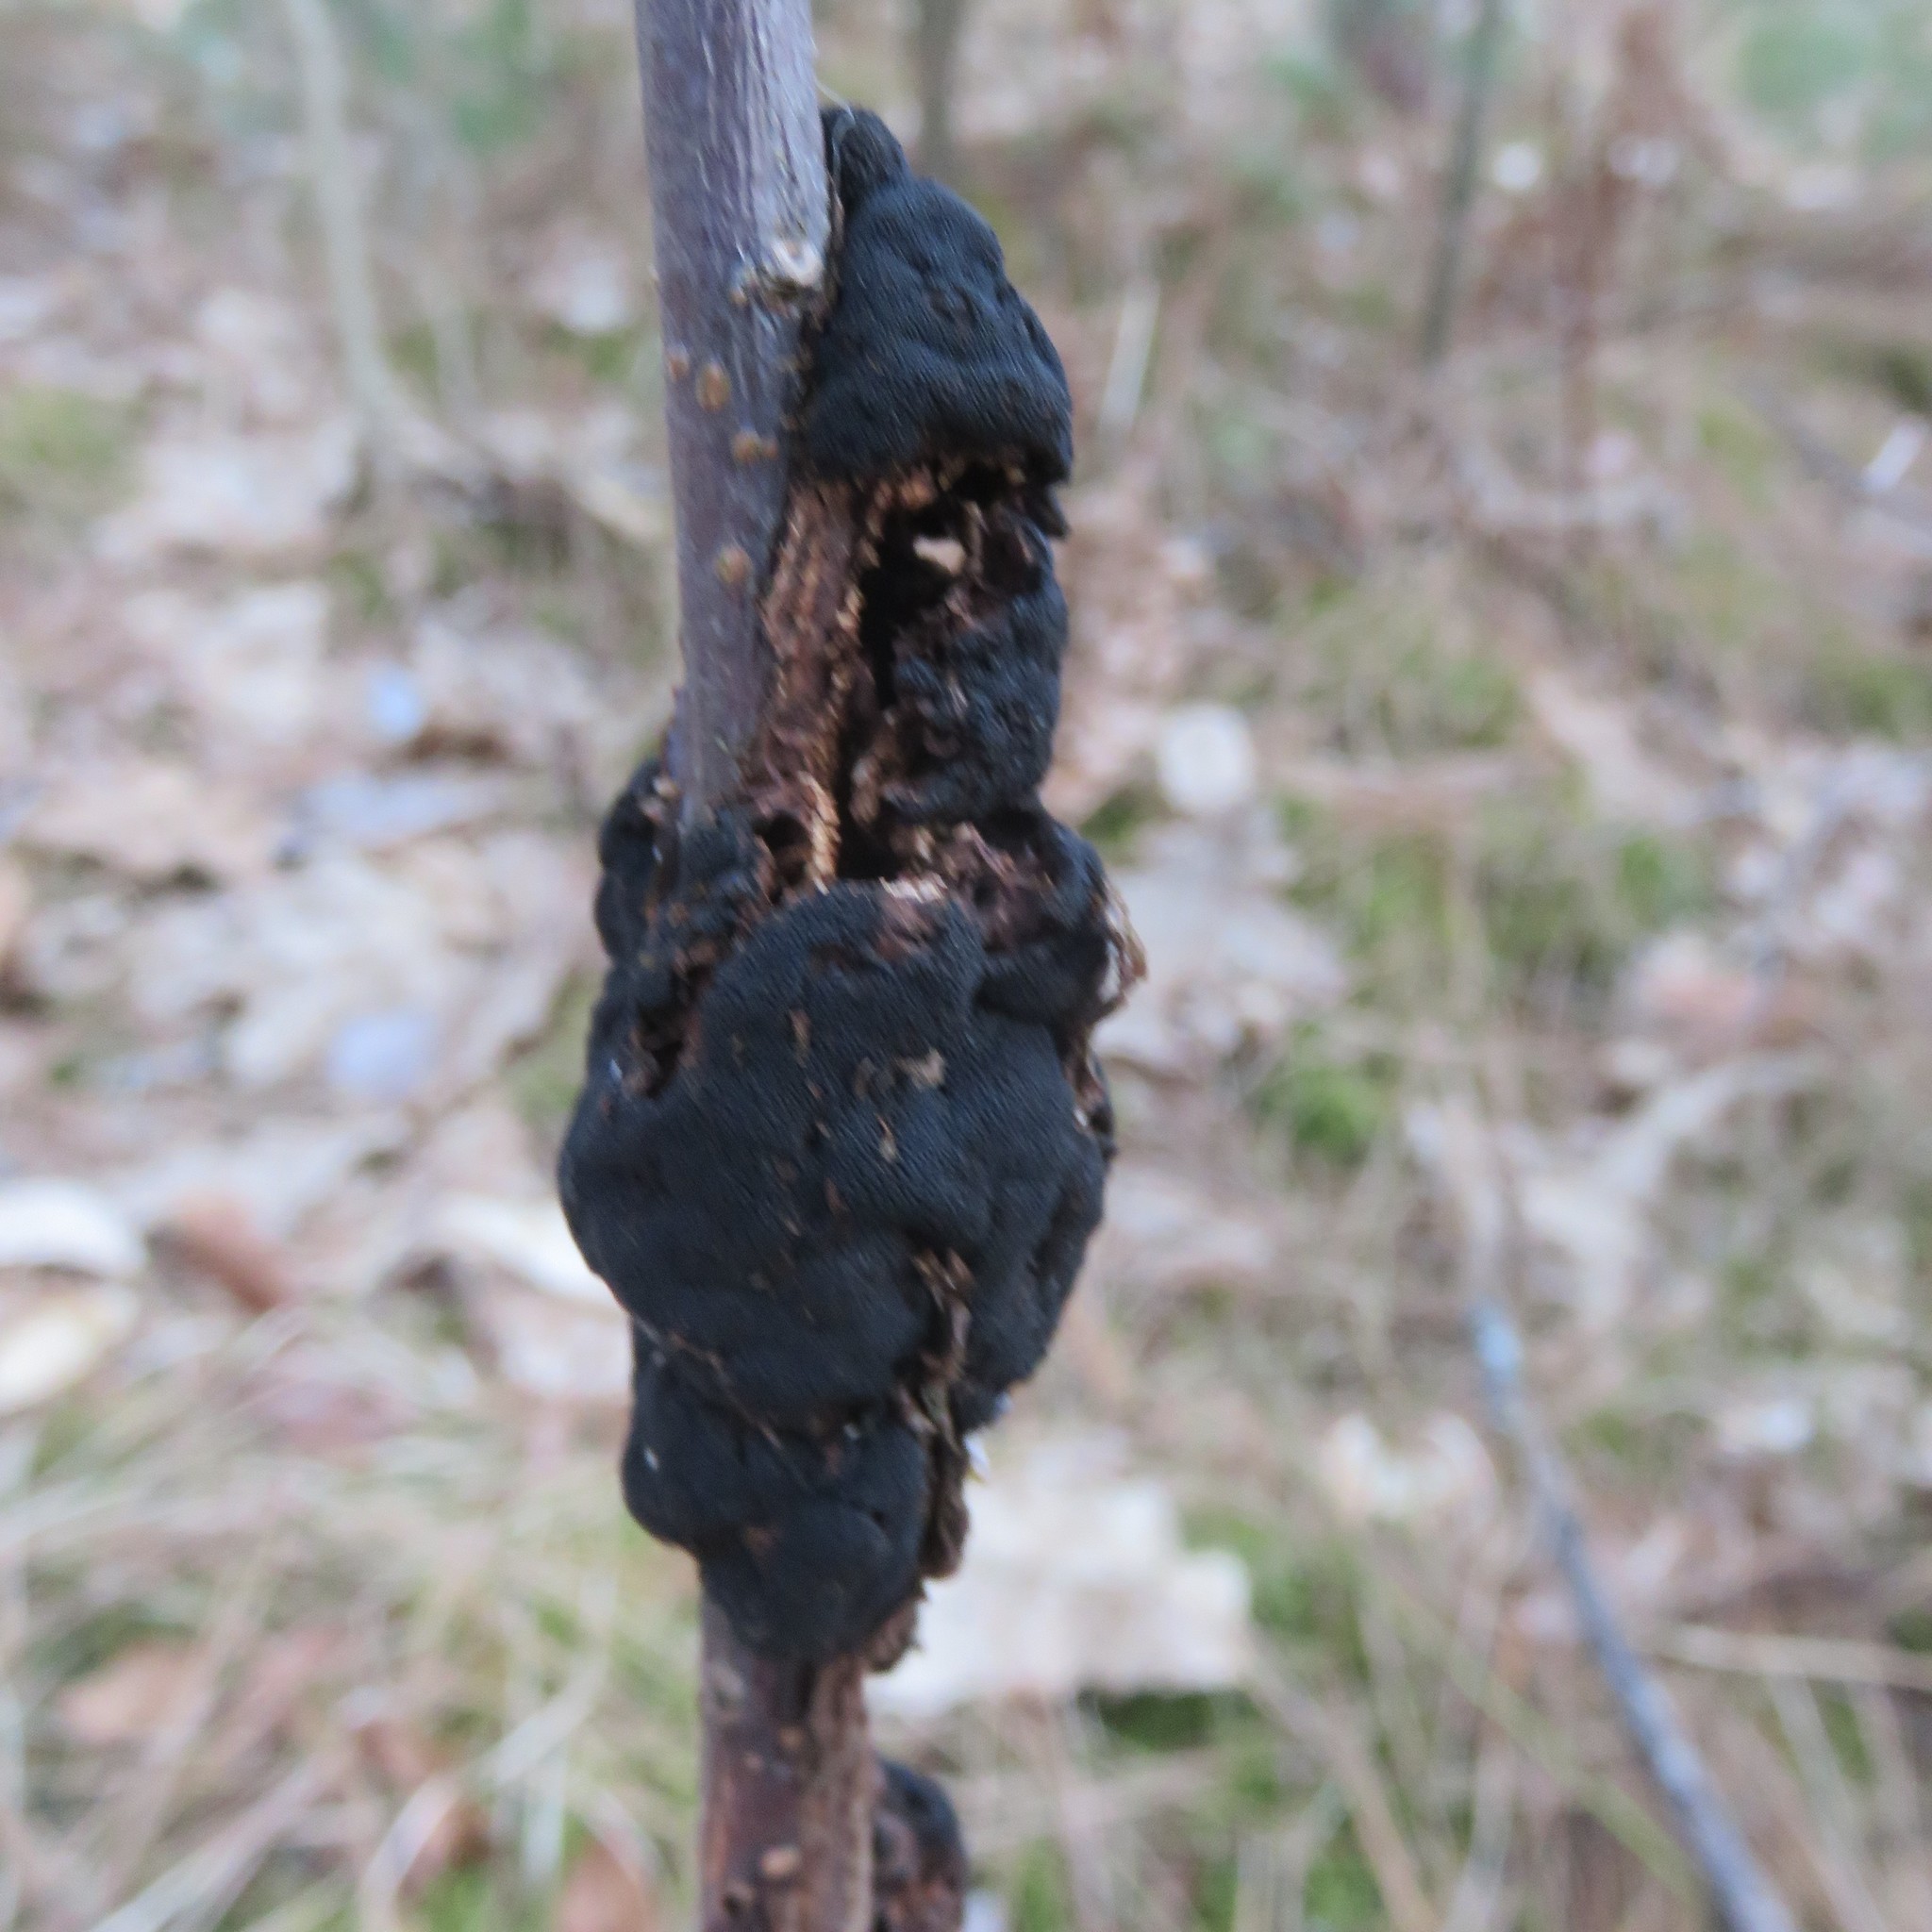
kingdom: Fungi
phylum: Ascomycota
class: Dothideomycetes
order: Venturiales
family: Venturiaceae
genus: Apiosporina
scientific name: Apiosporina morbosa
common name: Black knot
